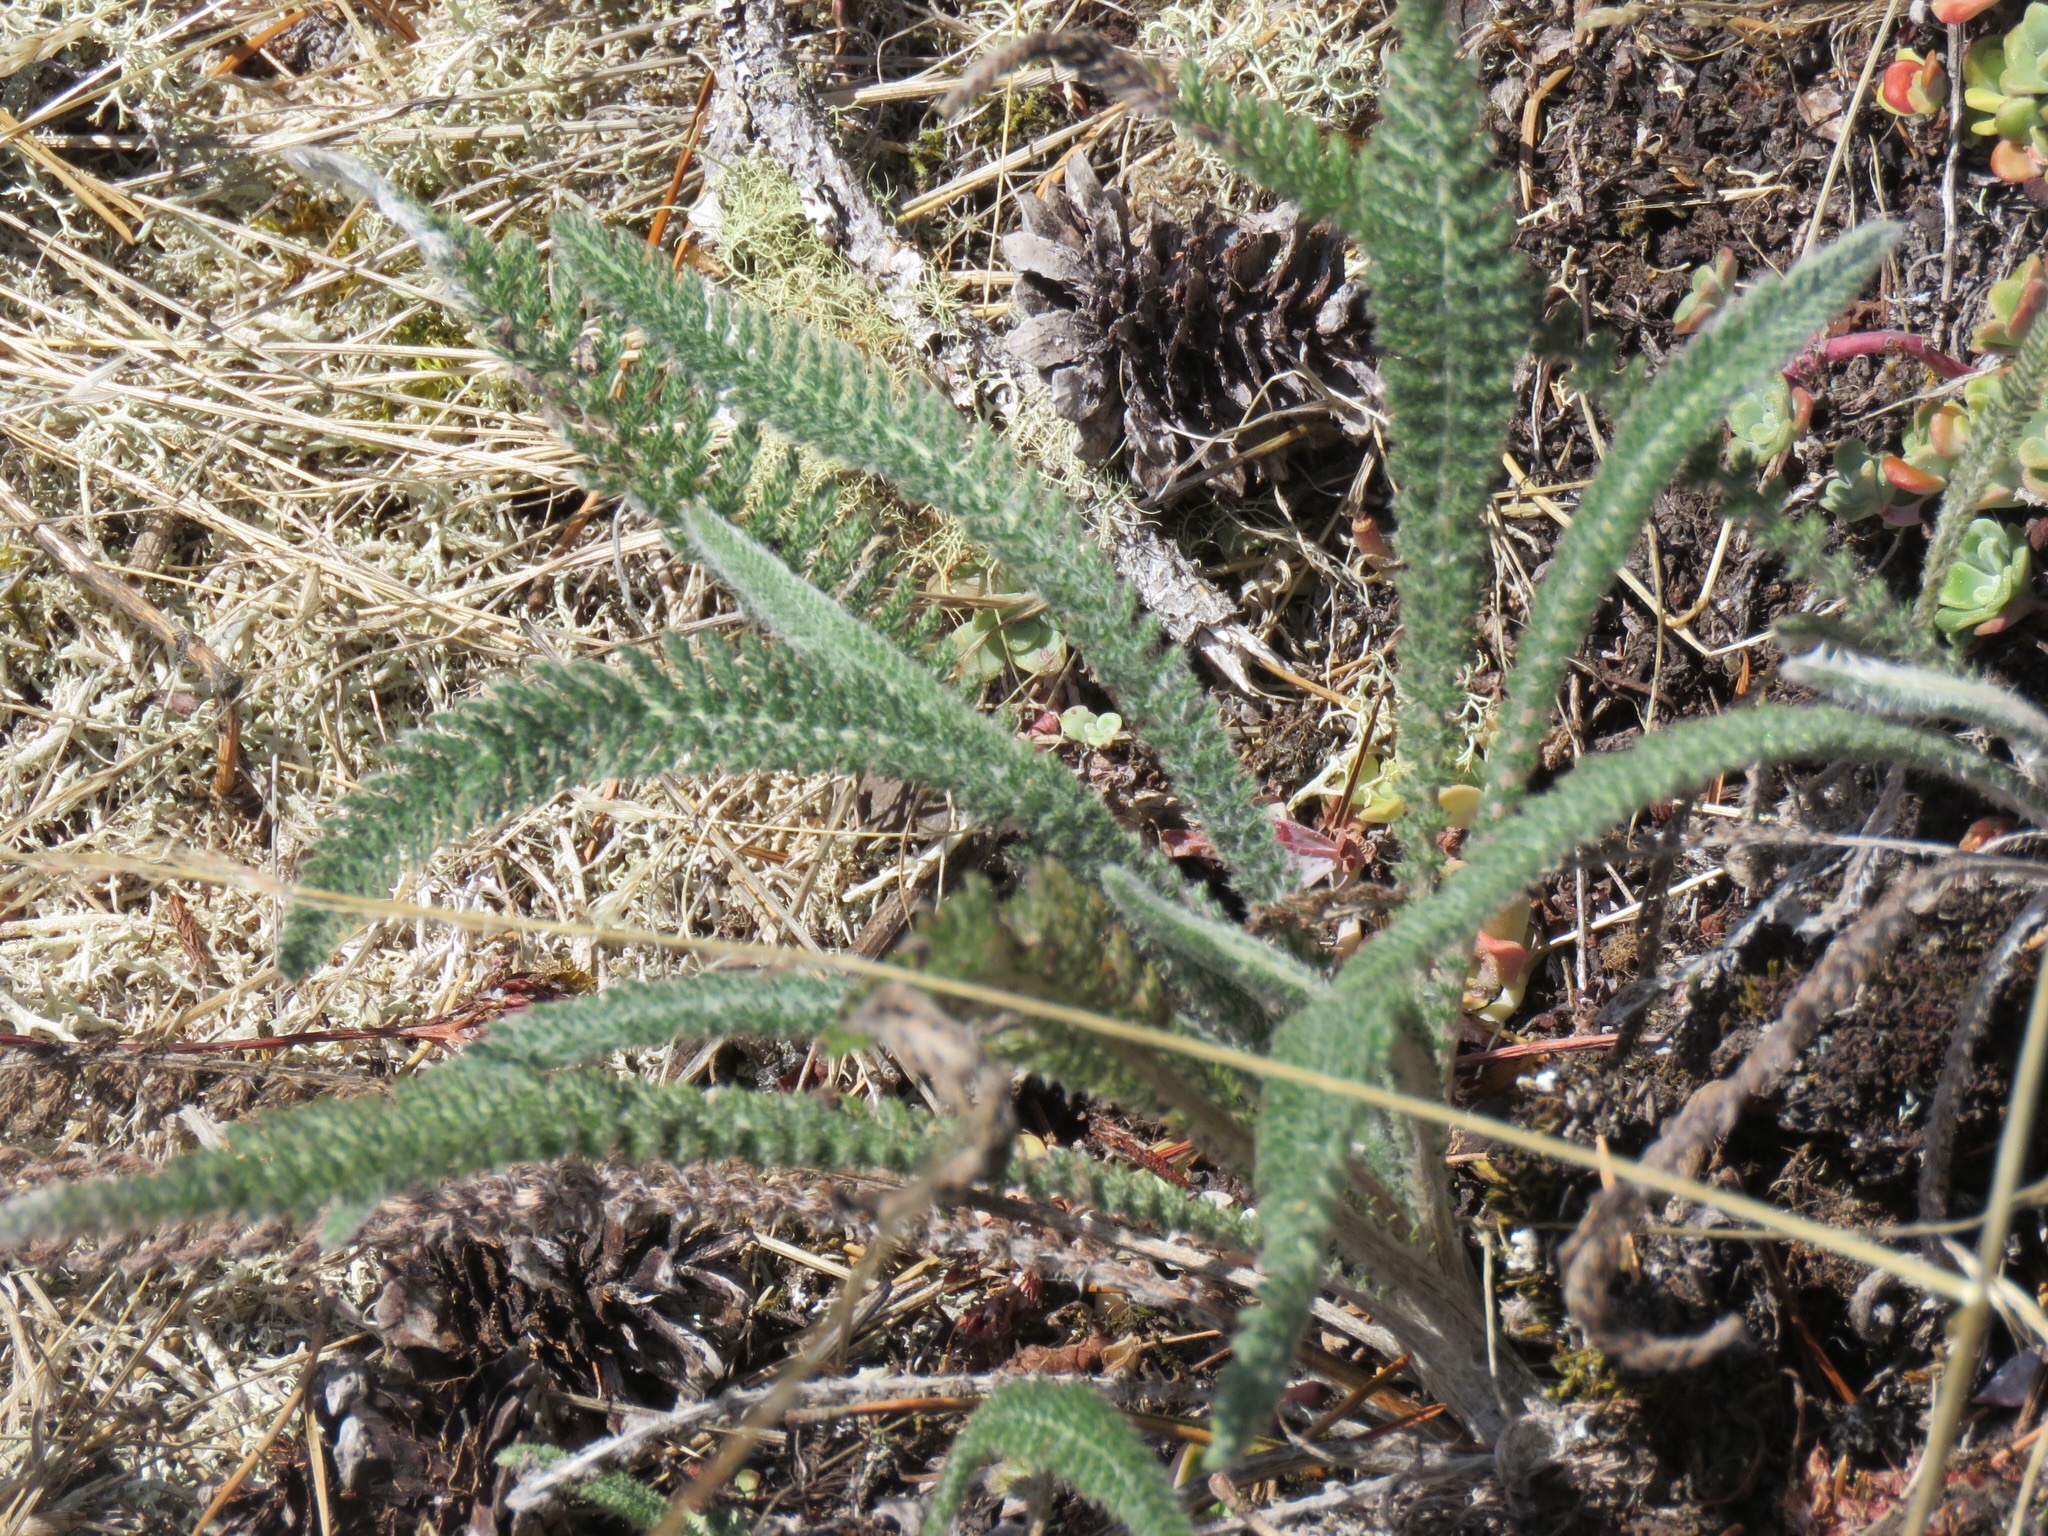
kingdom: Plantae
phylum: Tracheophyta
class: Magnoliopsida
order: Asterales
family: Asteraceae
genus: Achillea
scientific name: Achillea millefolium
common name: Yarrow
